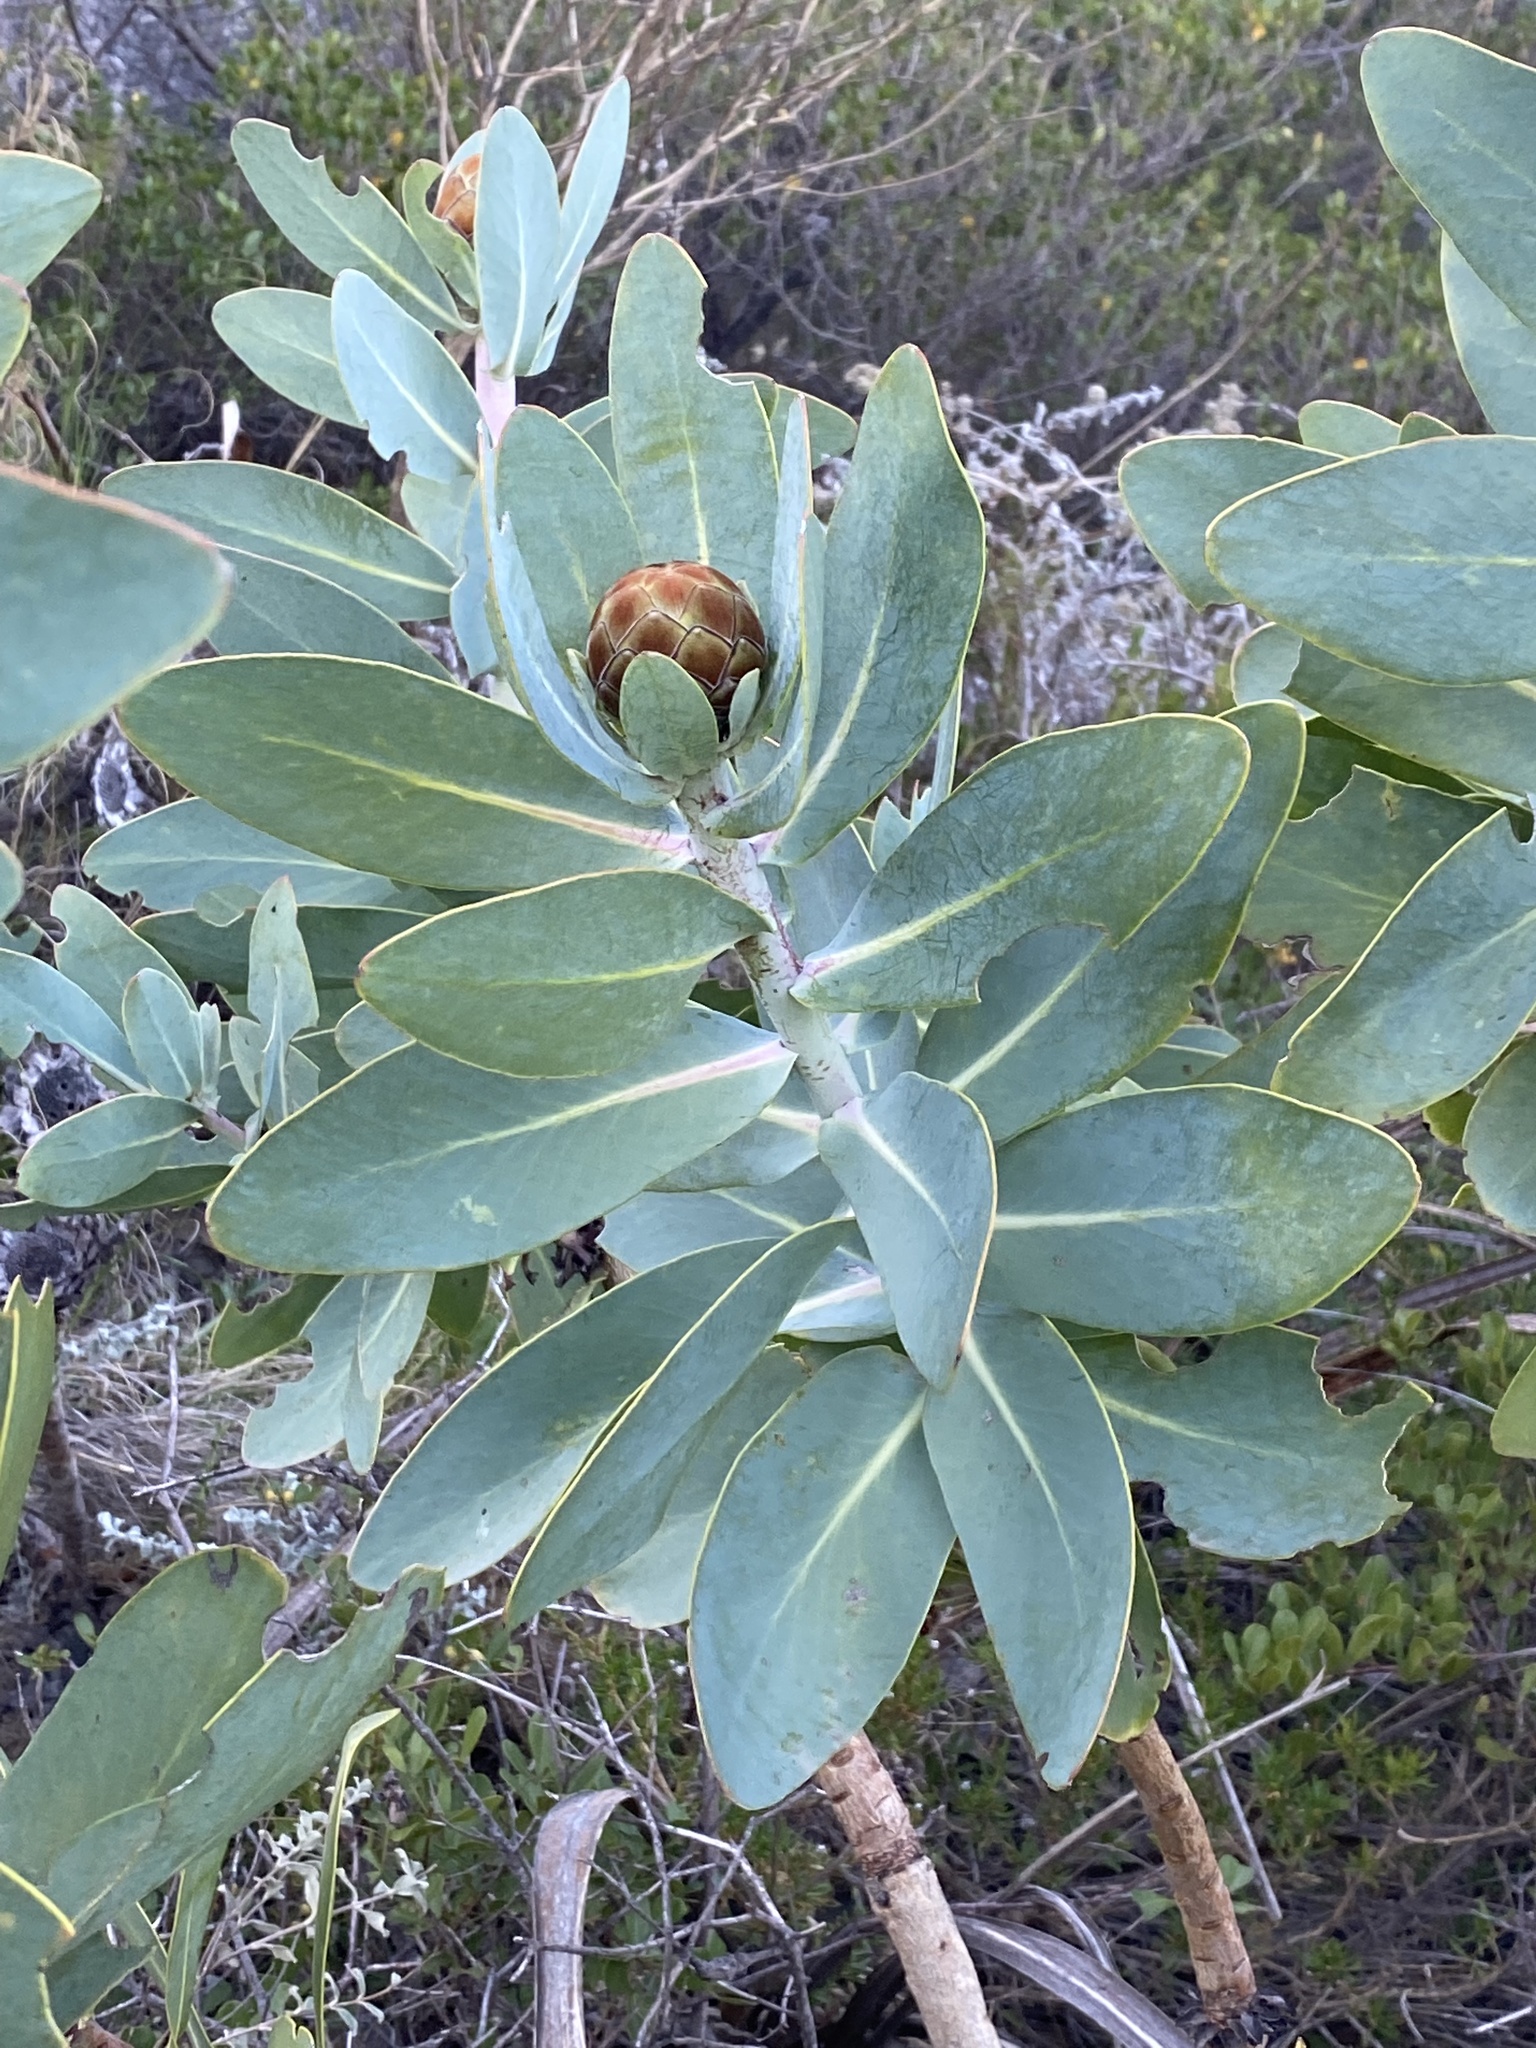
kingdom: Plantae
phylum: Tracheophyta
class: Magnoliopsida
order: Proteales
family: Proteaceae
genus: Protea
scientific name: Protea nitida
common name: Tree protea
